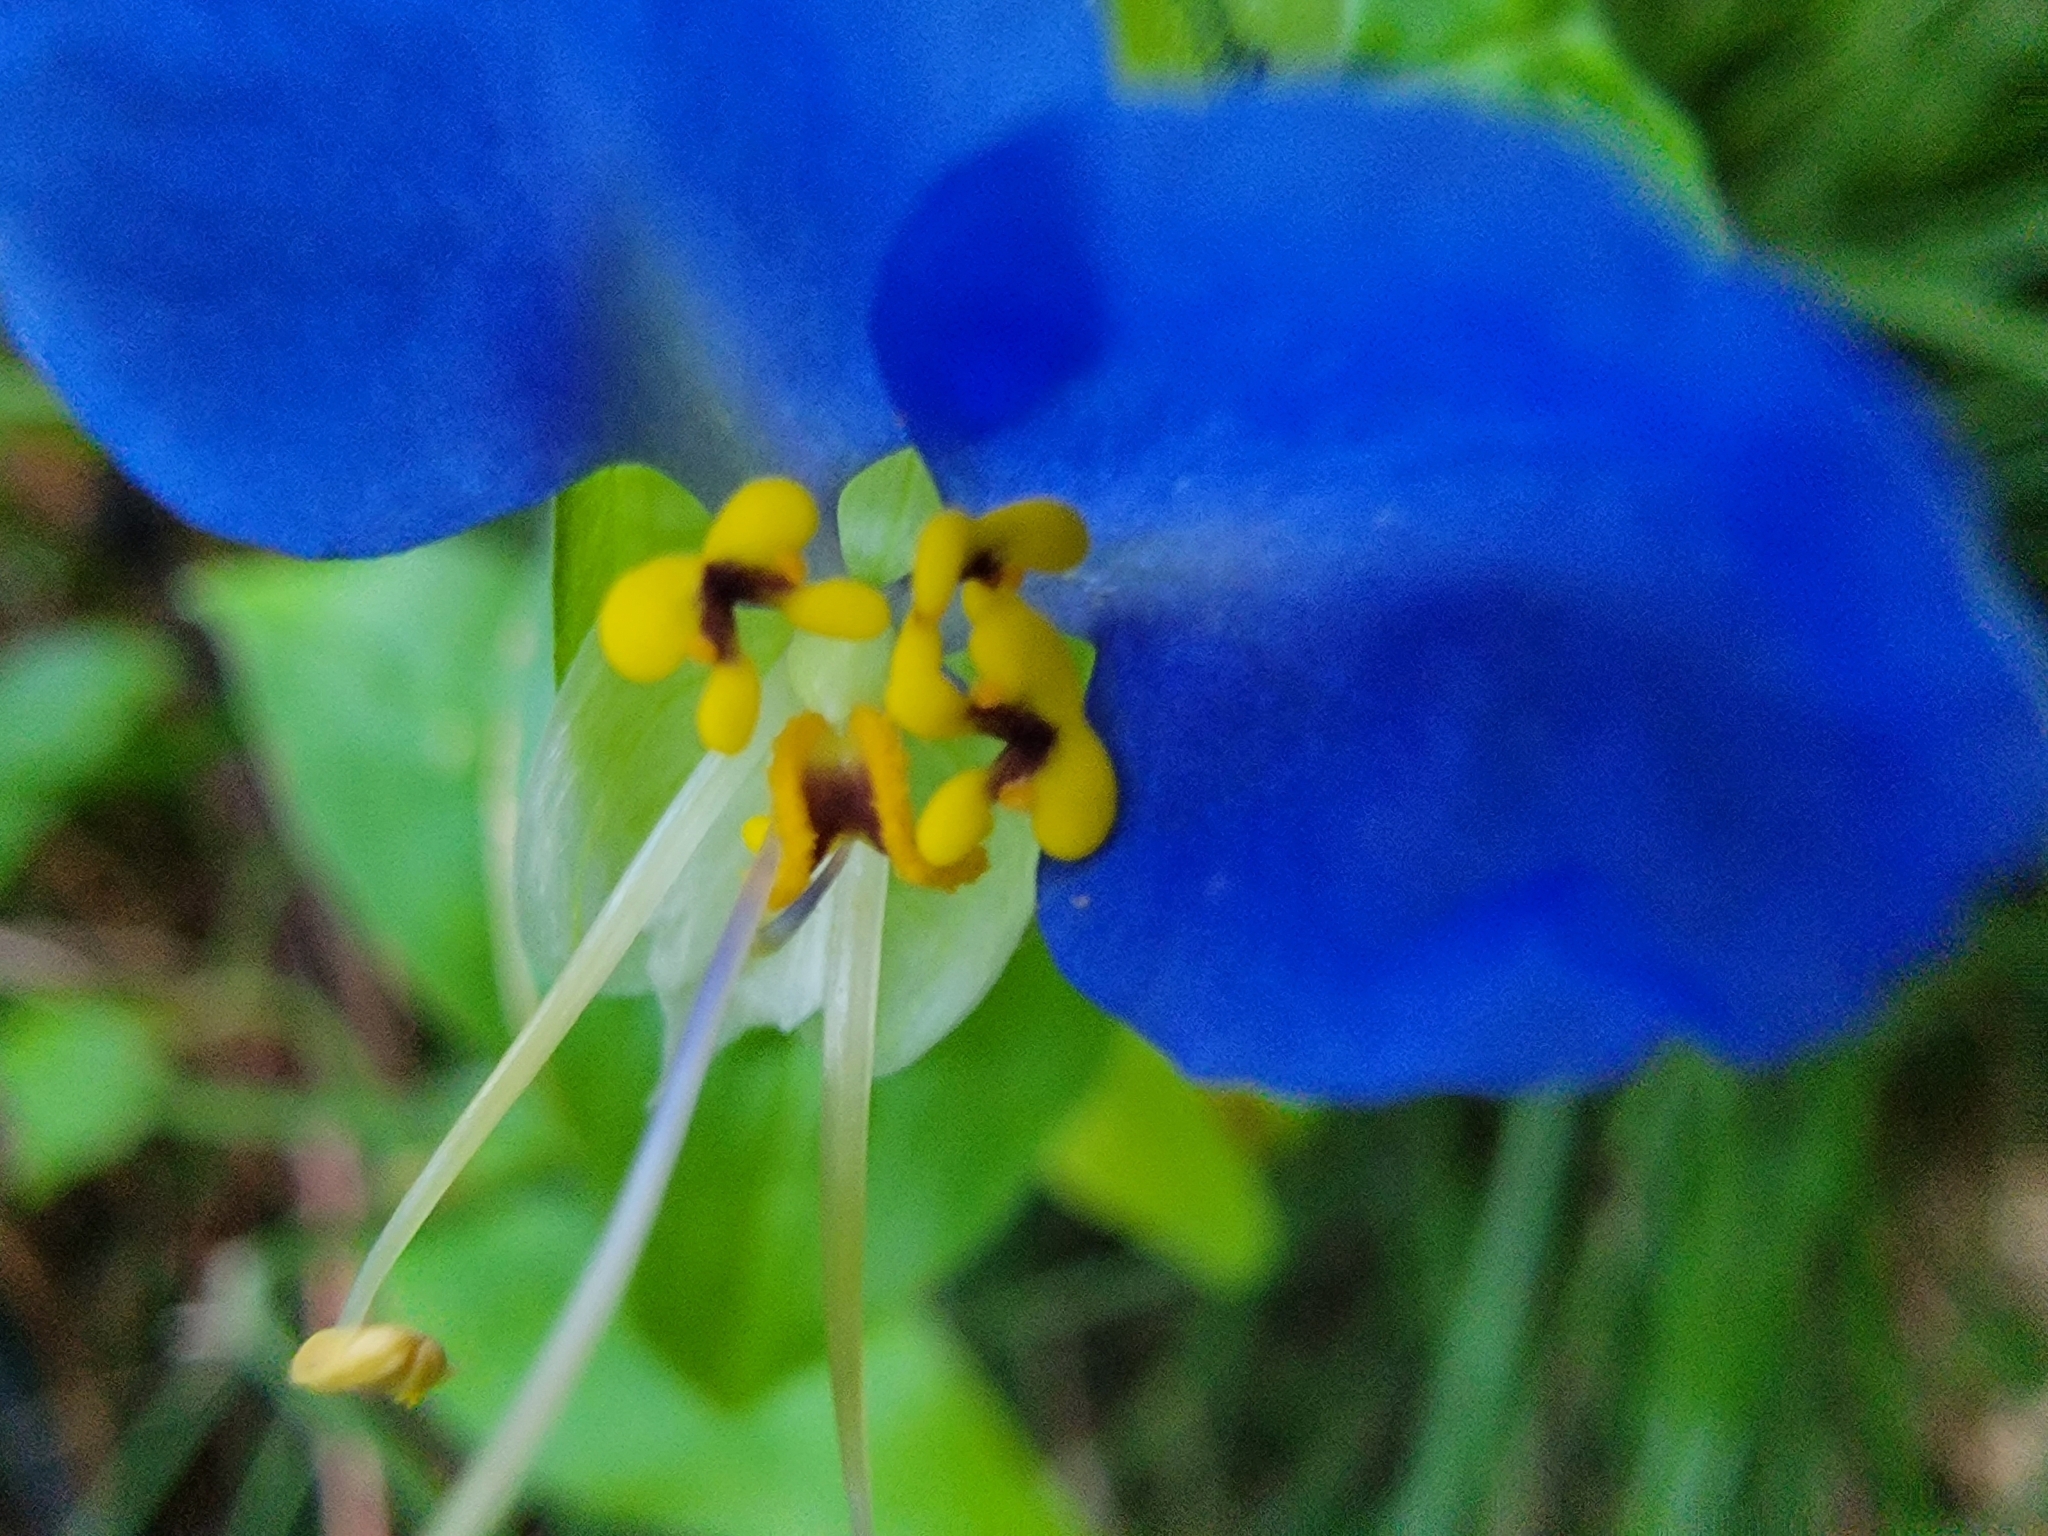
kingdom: Plantae
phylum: Tracheophyta
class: Liliopsida
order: Commelinales
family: Commelinaceae
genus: Commelina
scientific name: Commelina communis
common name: Asiatic dayflower
